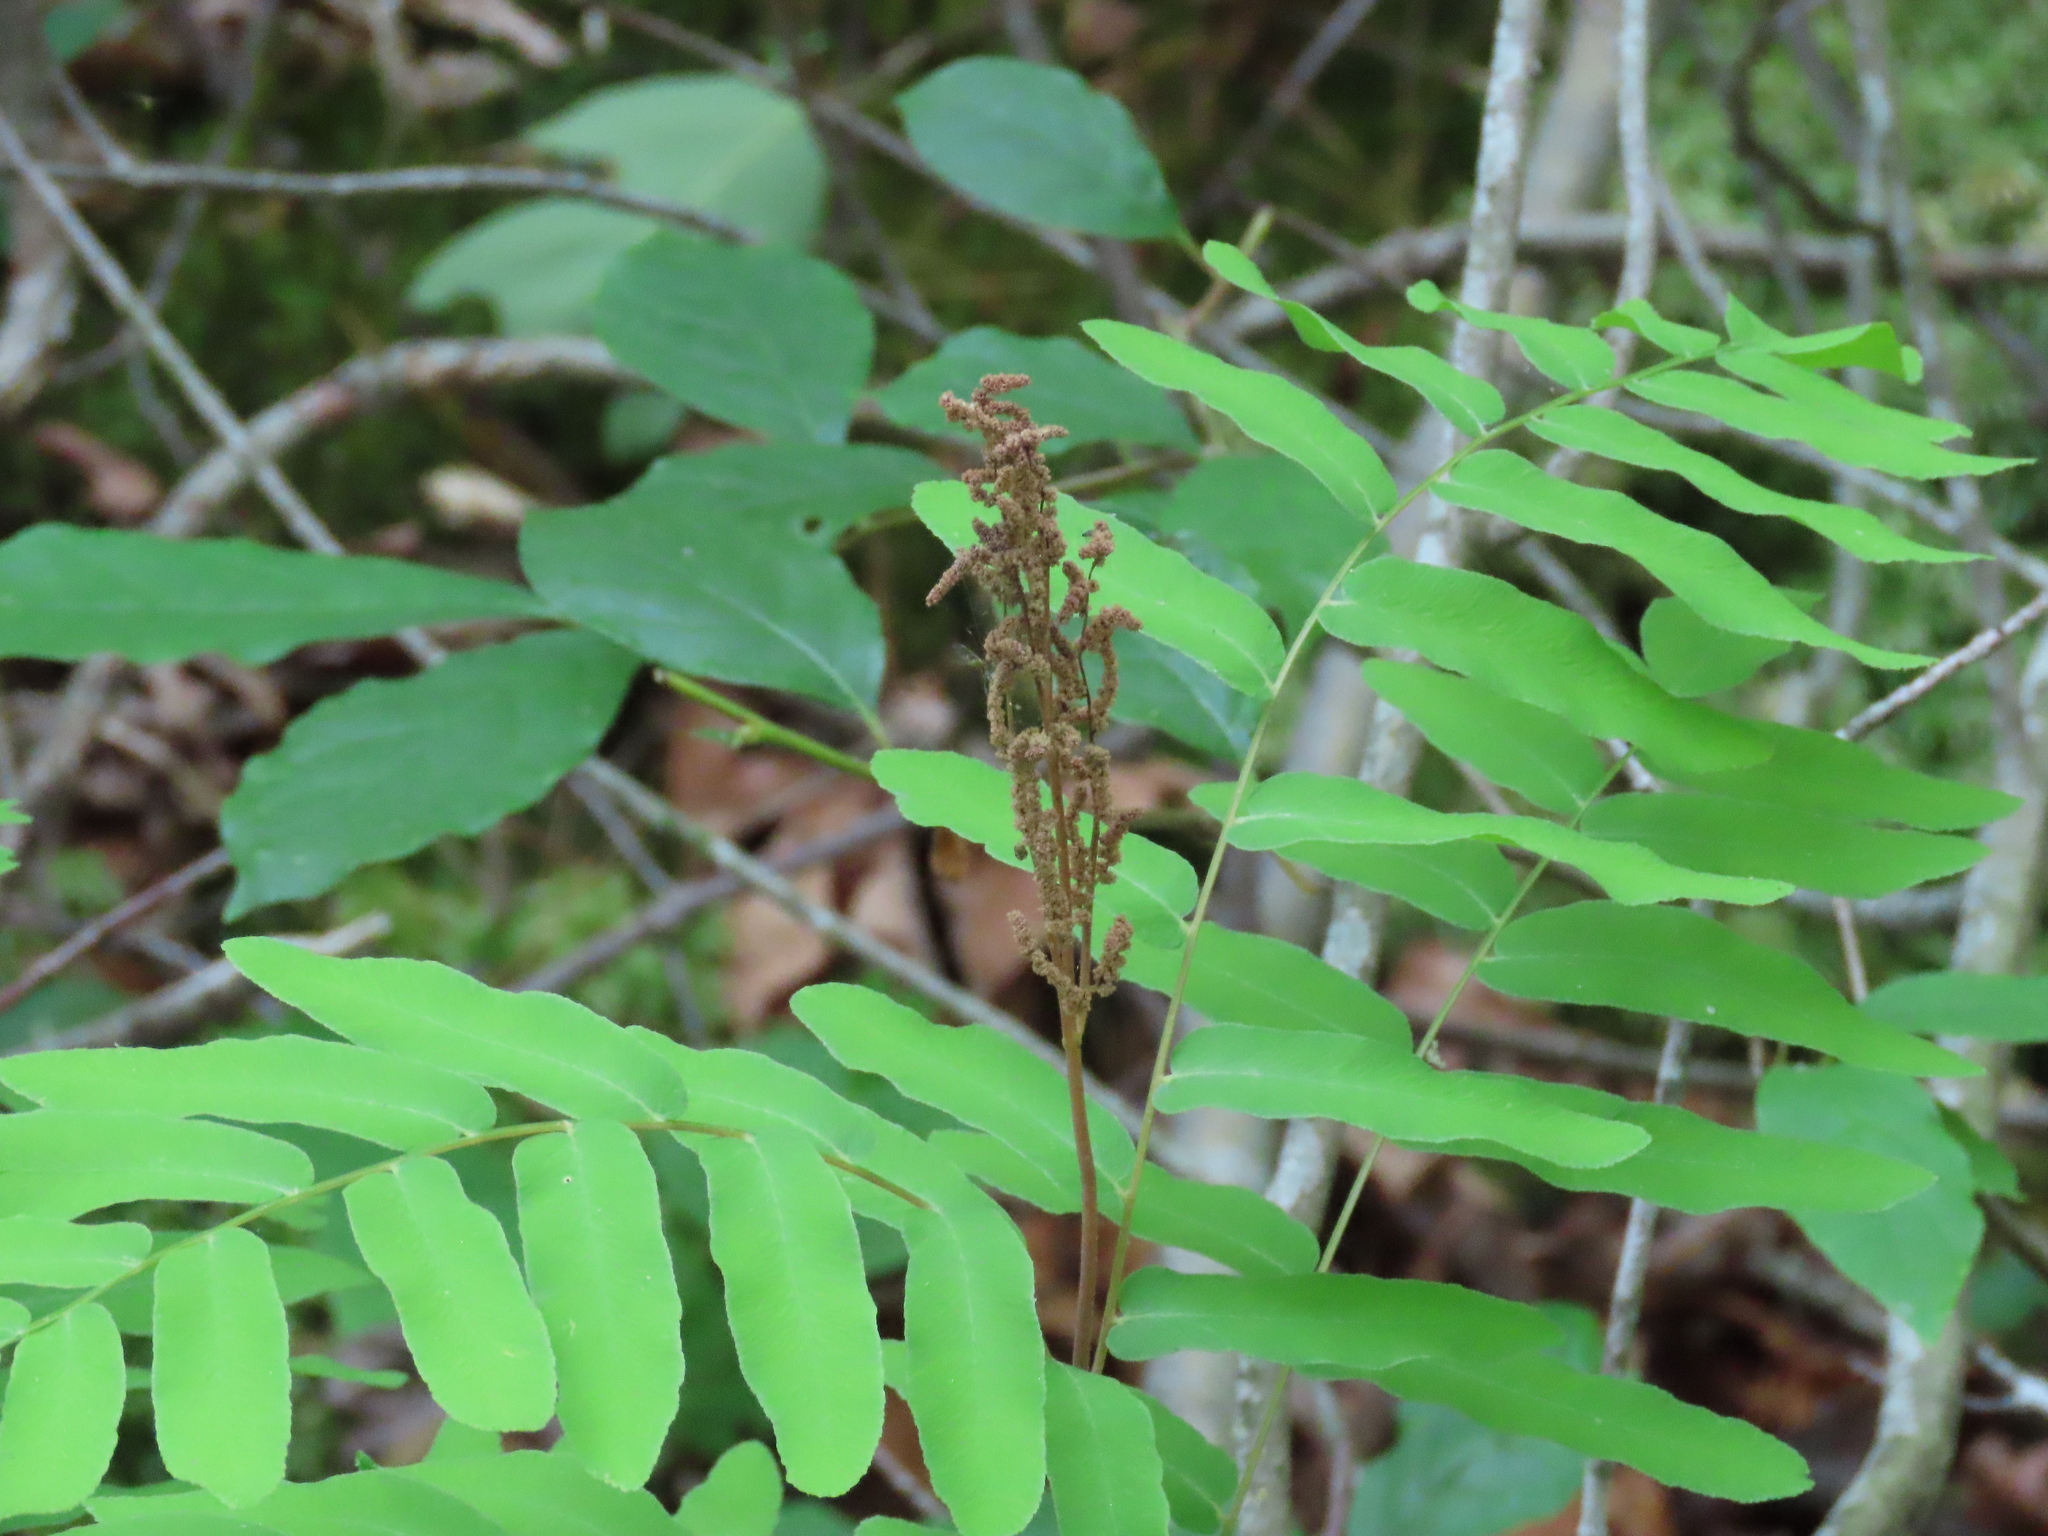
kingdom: Plantae
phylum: Tracheophyta
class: Polypodiopsida
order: Osmundales
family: Osmundaceae
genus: Osmunda
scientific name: Osmunda spectabilis
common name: American royal fern
